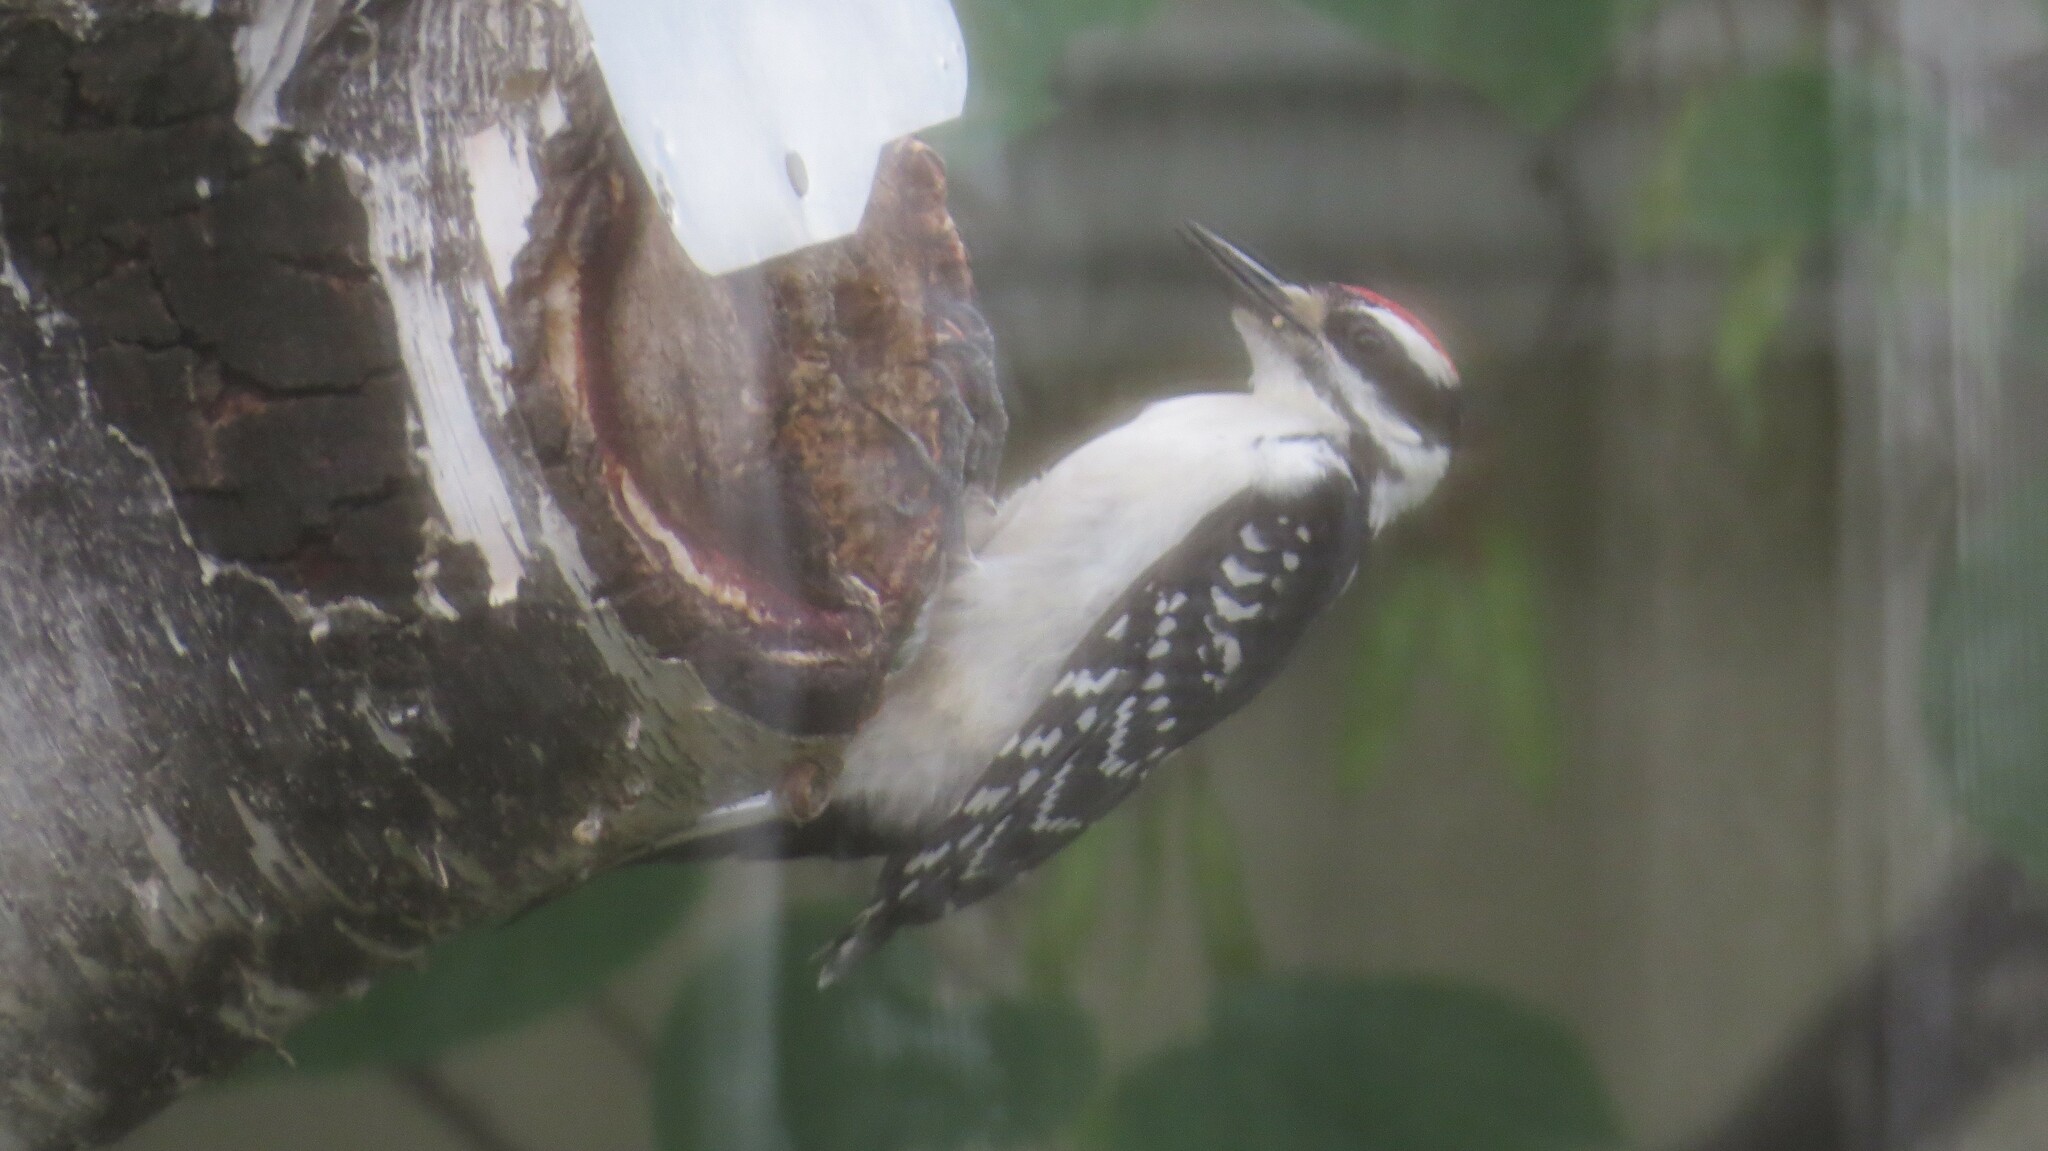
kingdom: Animalia
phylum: Chordata
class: Aves
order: Piciformes
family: Picidae
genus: Leuconotopicus
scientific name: Leuconotopicus villosus
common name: Hairy woodpecker
